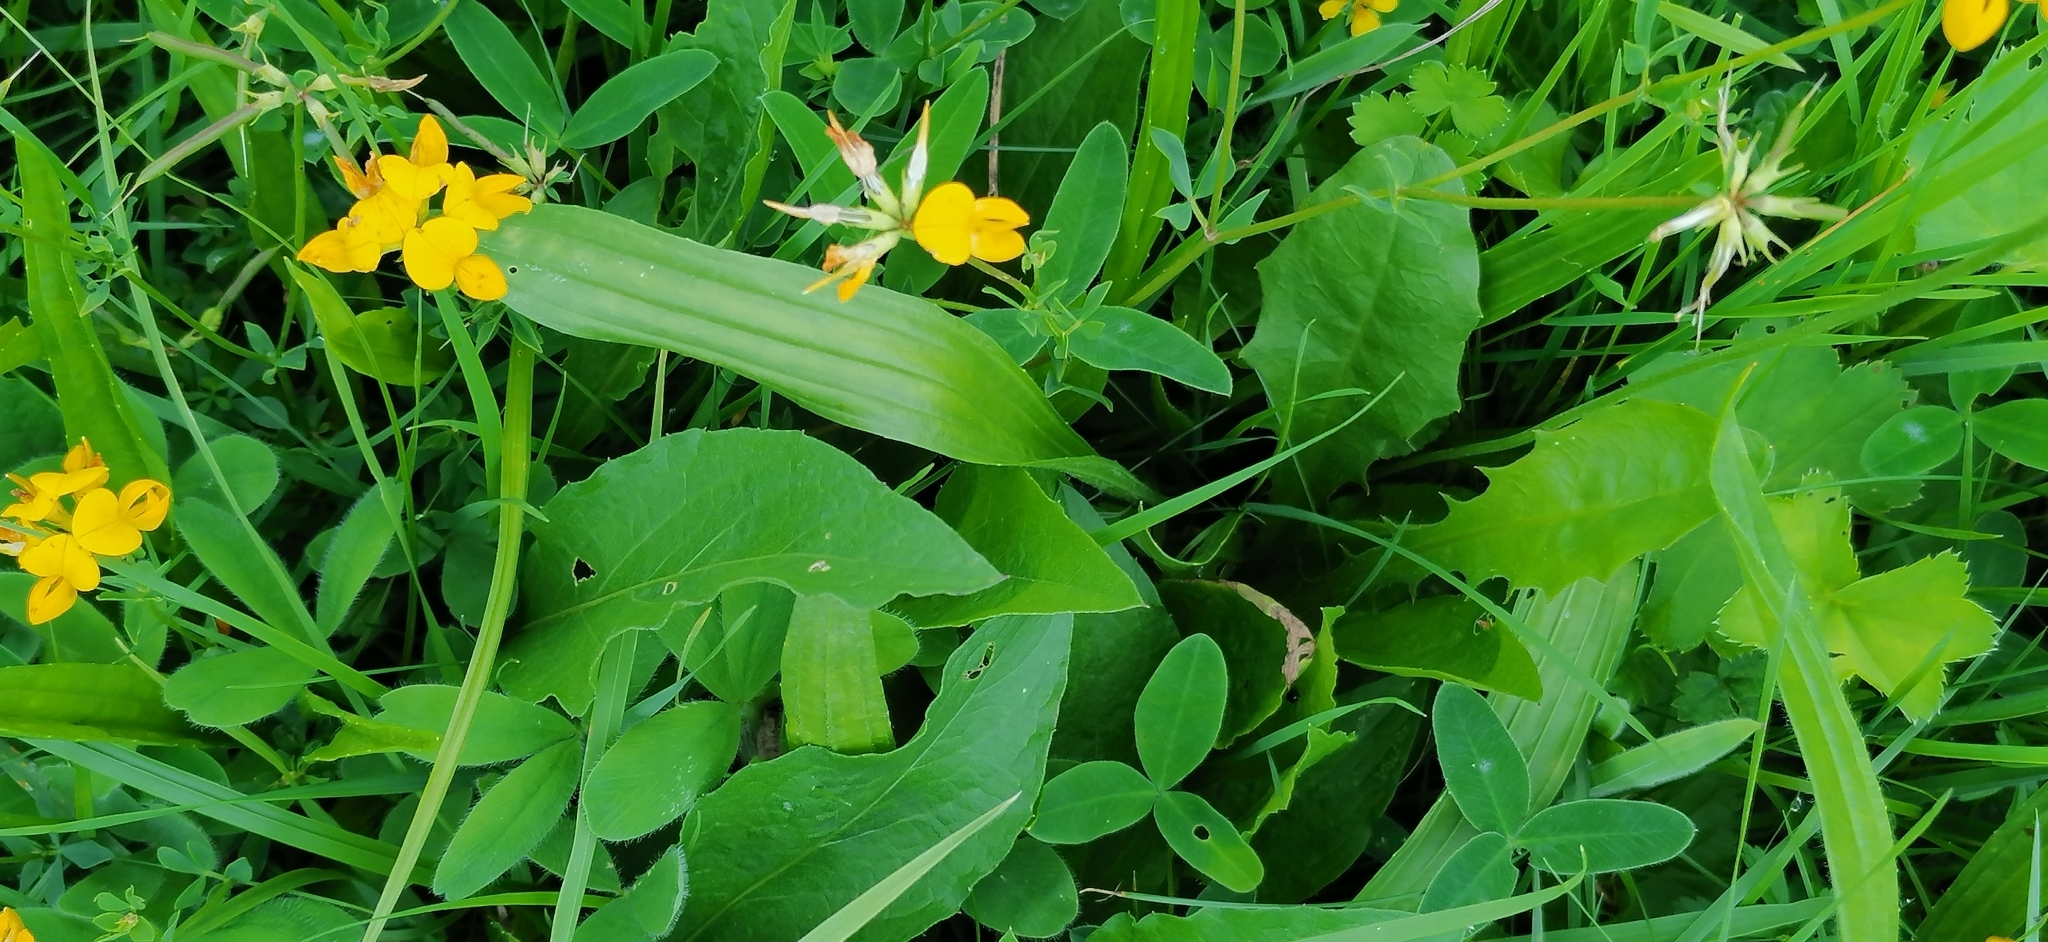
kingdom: Plantae
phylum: Tracheophyta
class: Magnoliopsida
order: Fabales
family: Fabaceae
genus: Lotus
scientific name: Lotus corniculatus
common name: Common bird's-foot-trefoil
